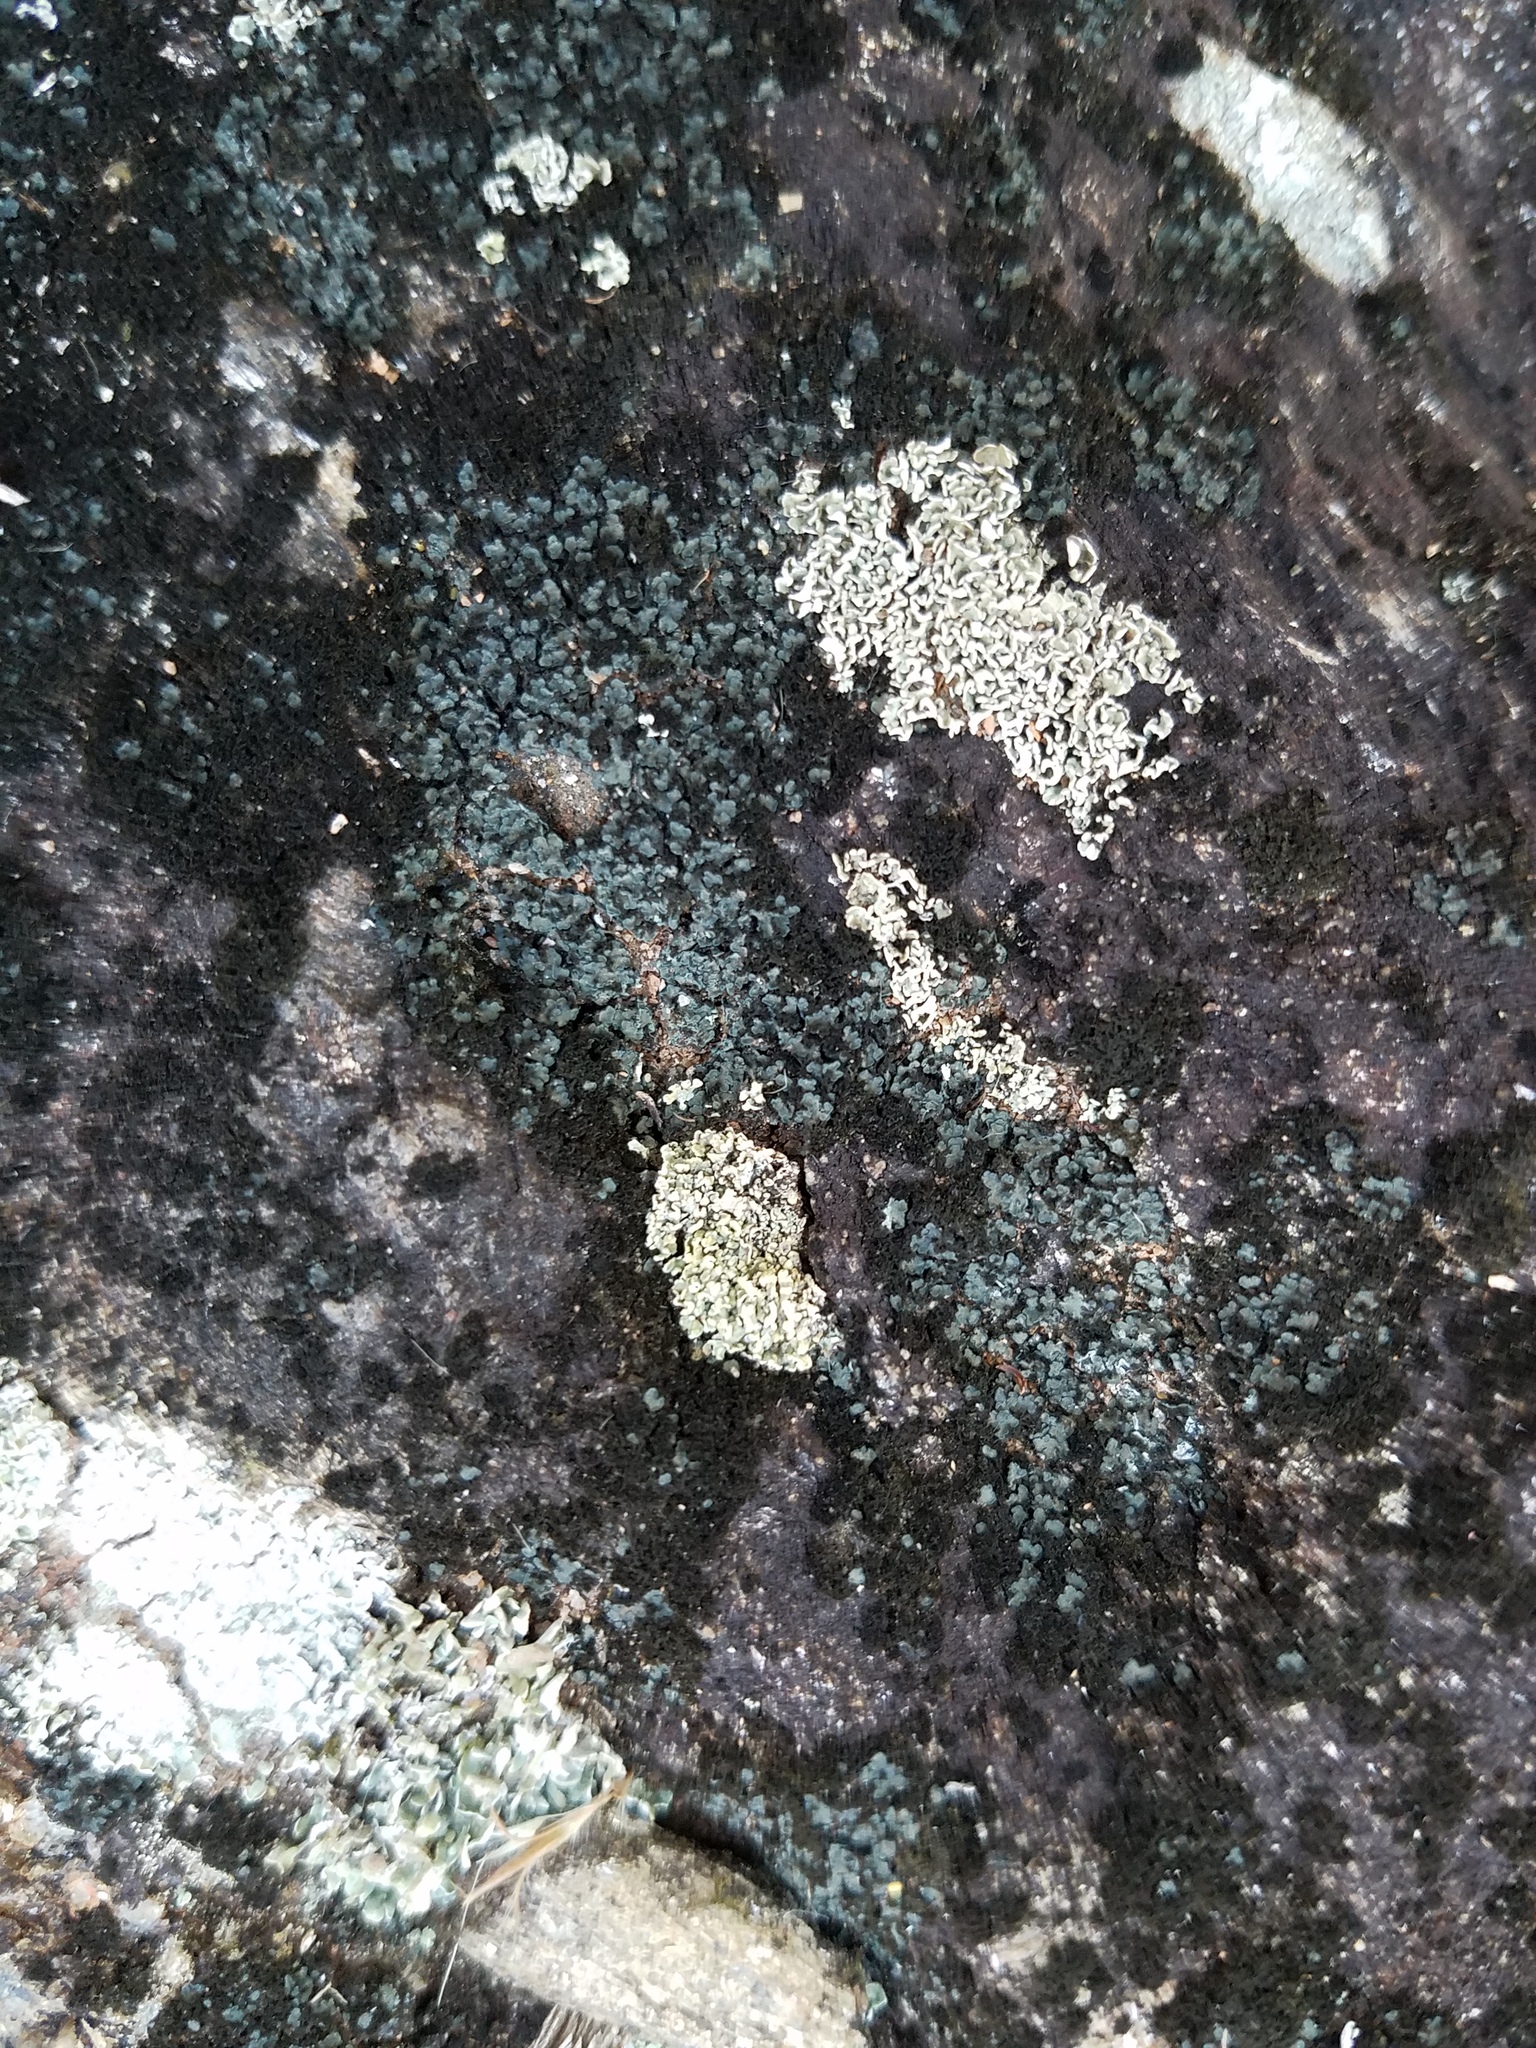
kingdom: Fungi
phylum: Ascomycota
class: Lecanoromycetes
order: Lecanorales
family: Psoraceae
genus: Psorula
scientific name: Psorula rufonigra
